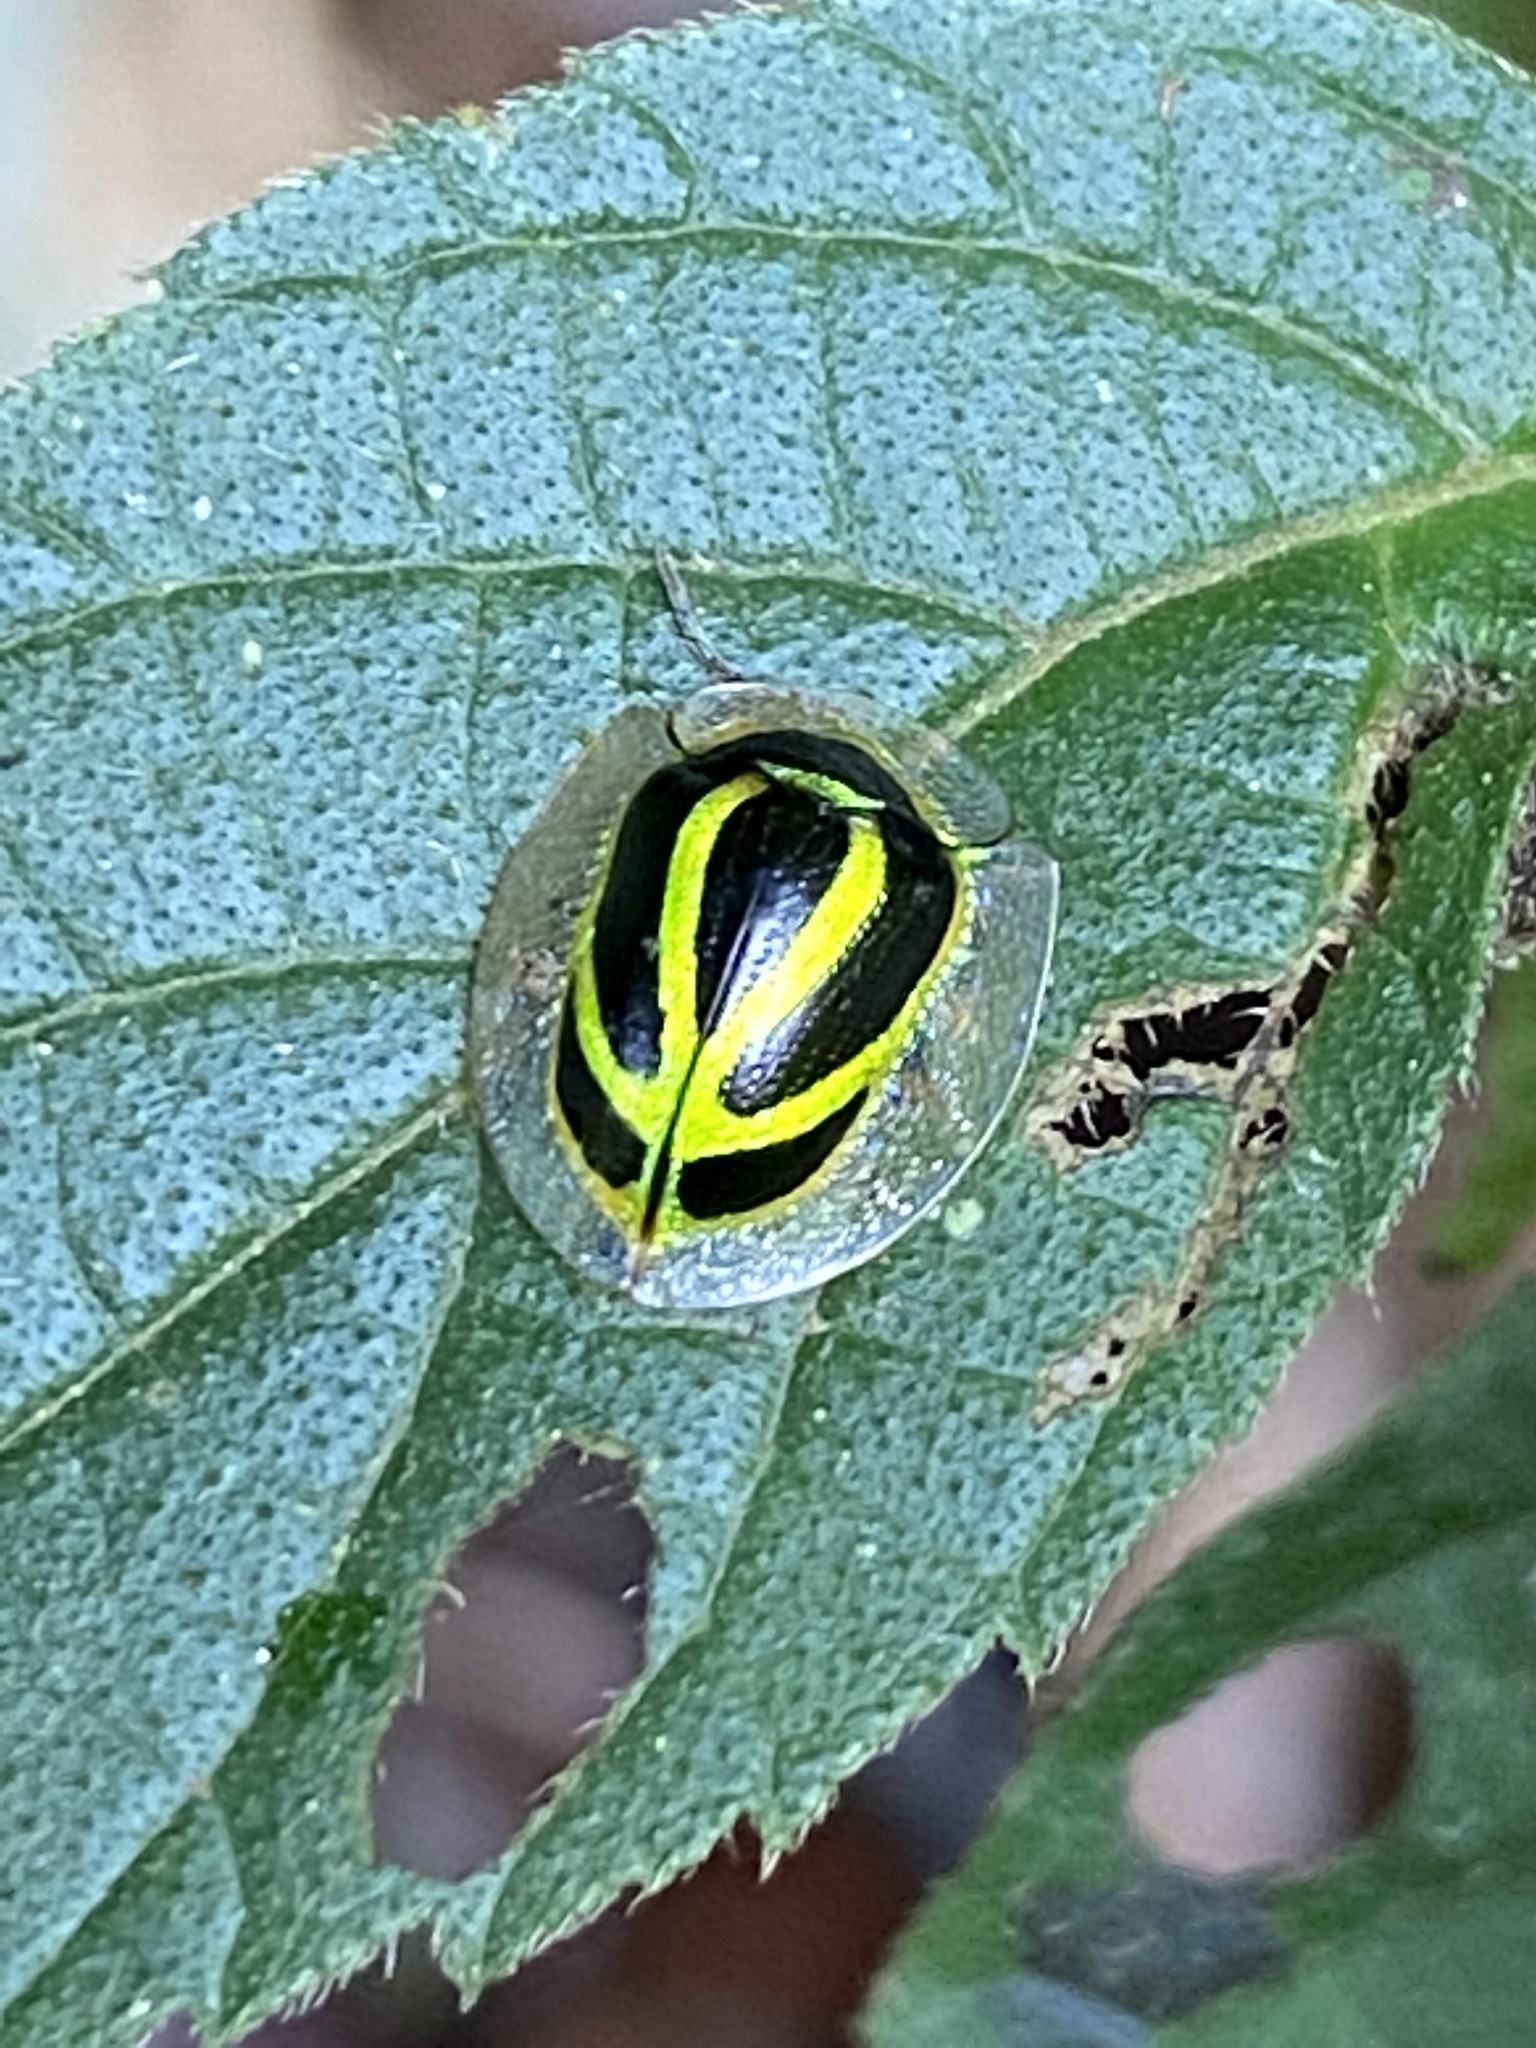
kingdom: Animalia
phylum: Arthropoda
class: Insecta
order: Coleoptera
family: Chrysomelidae
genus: Coptocycla
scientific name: Coptocycla arcuata
